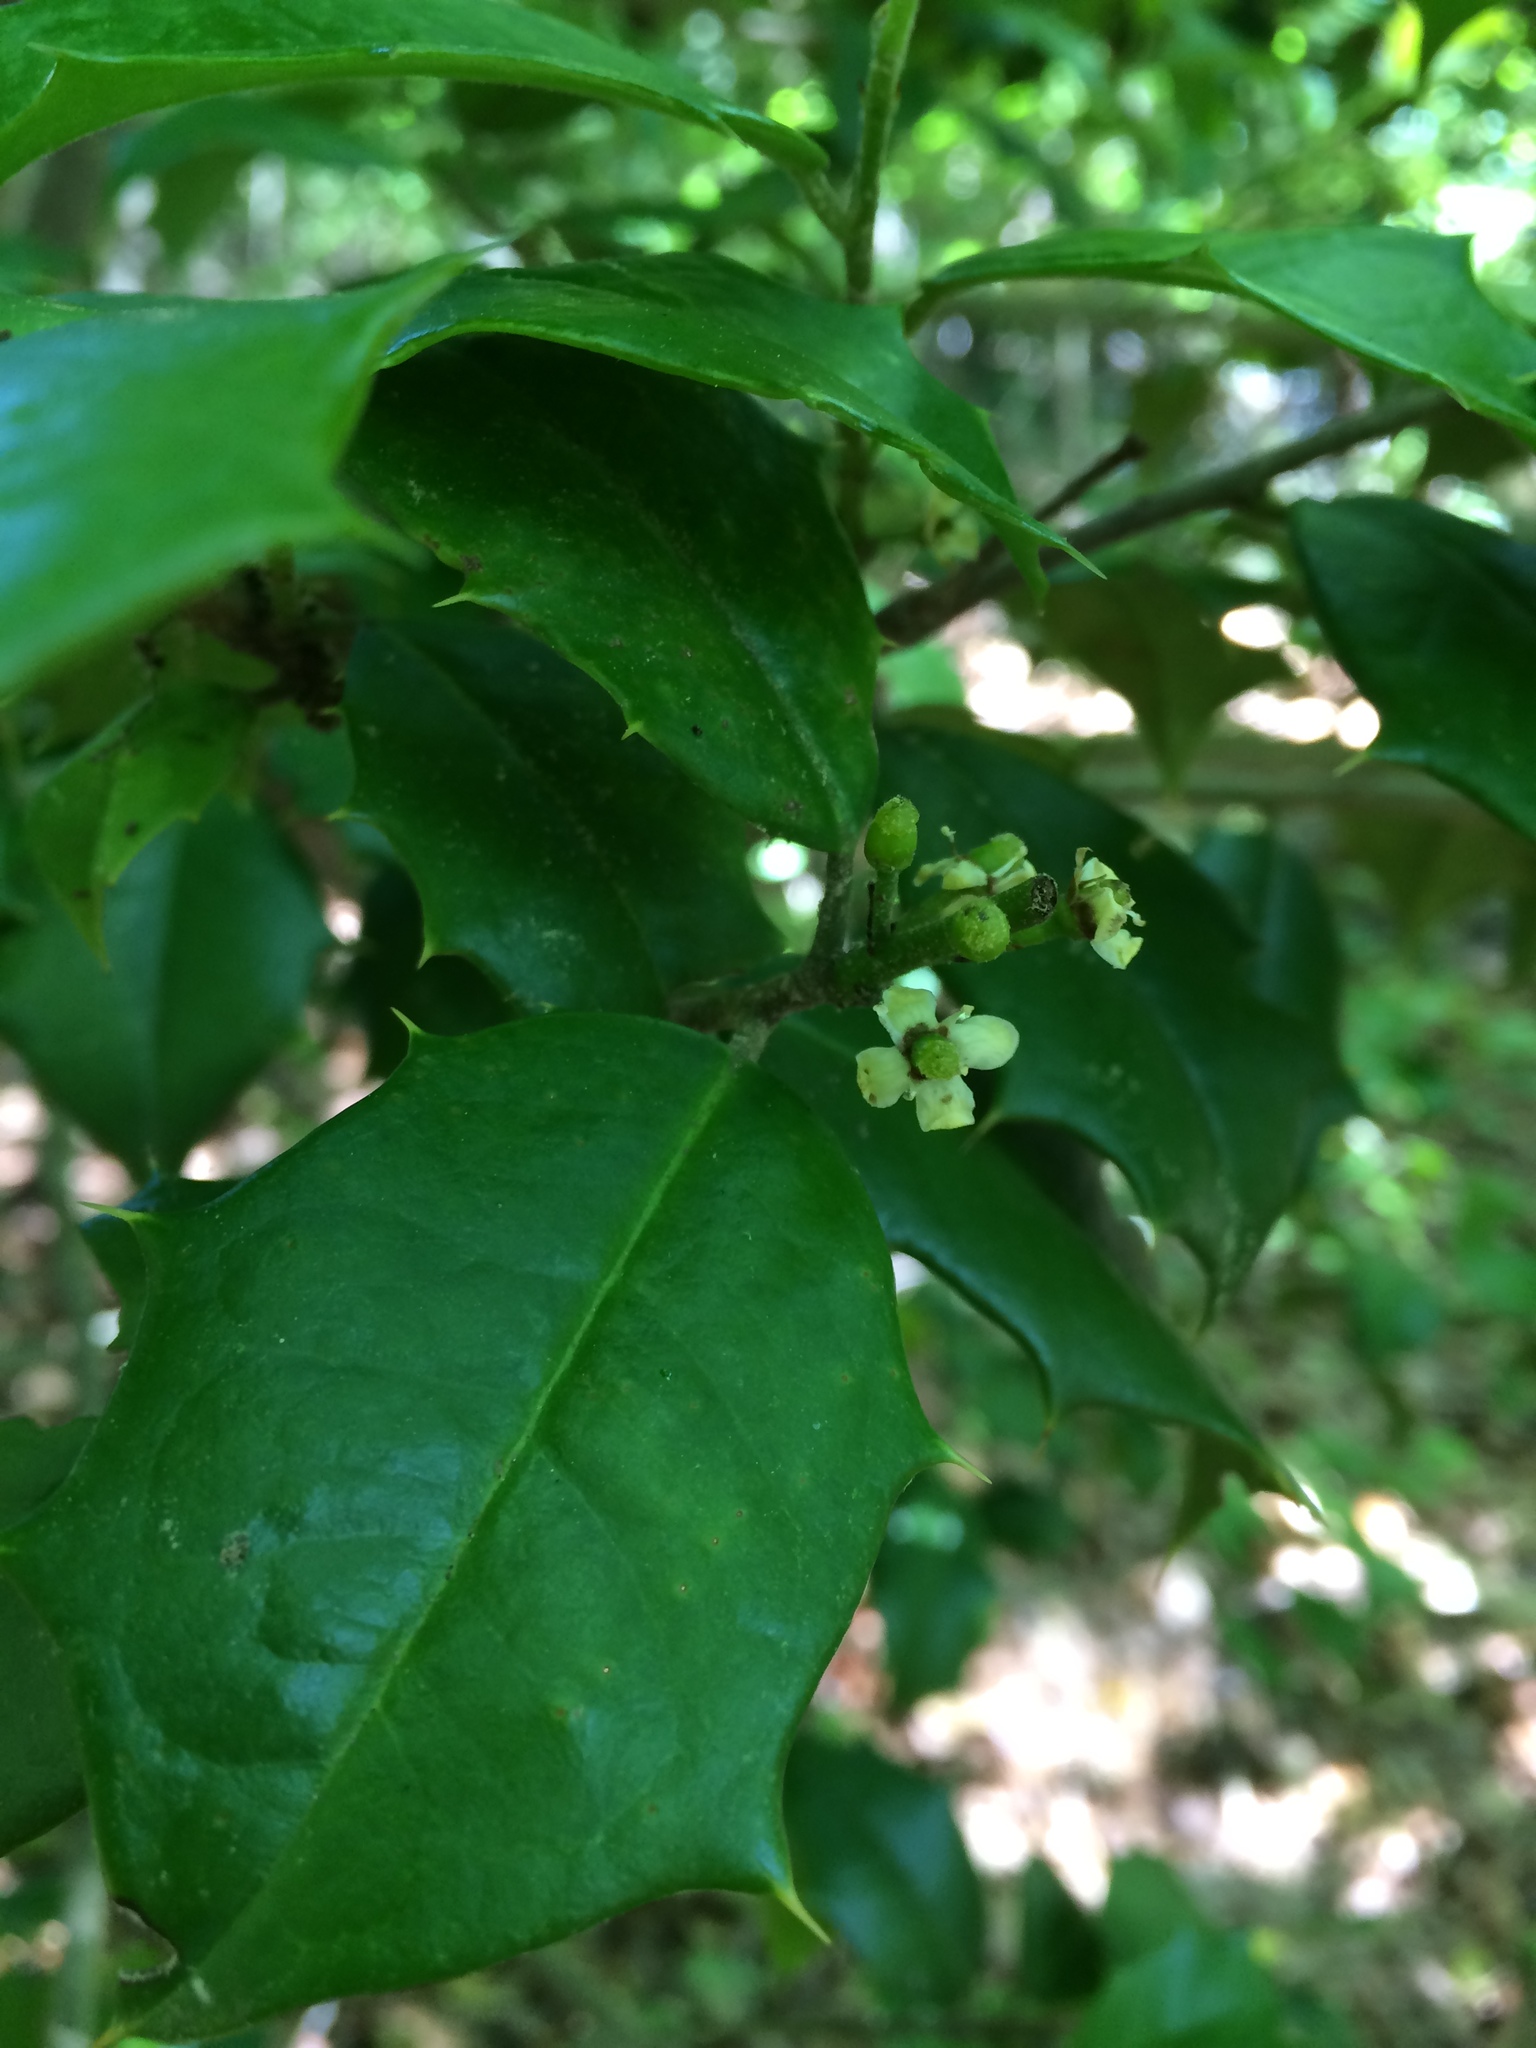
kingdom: Plantae
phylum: Tracheophyta
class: Magnoliopsida
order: Aquifoliales
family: Aquifoliaceae
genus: Ilex
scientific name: Ilex opaca
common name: American holly
